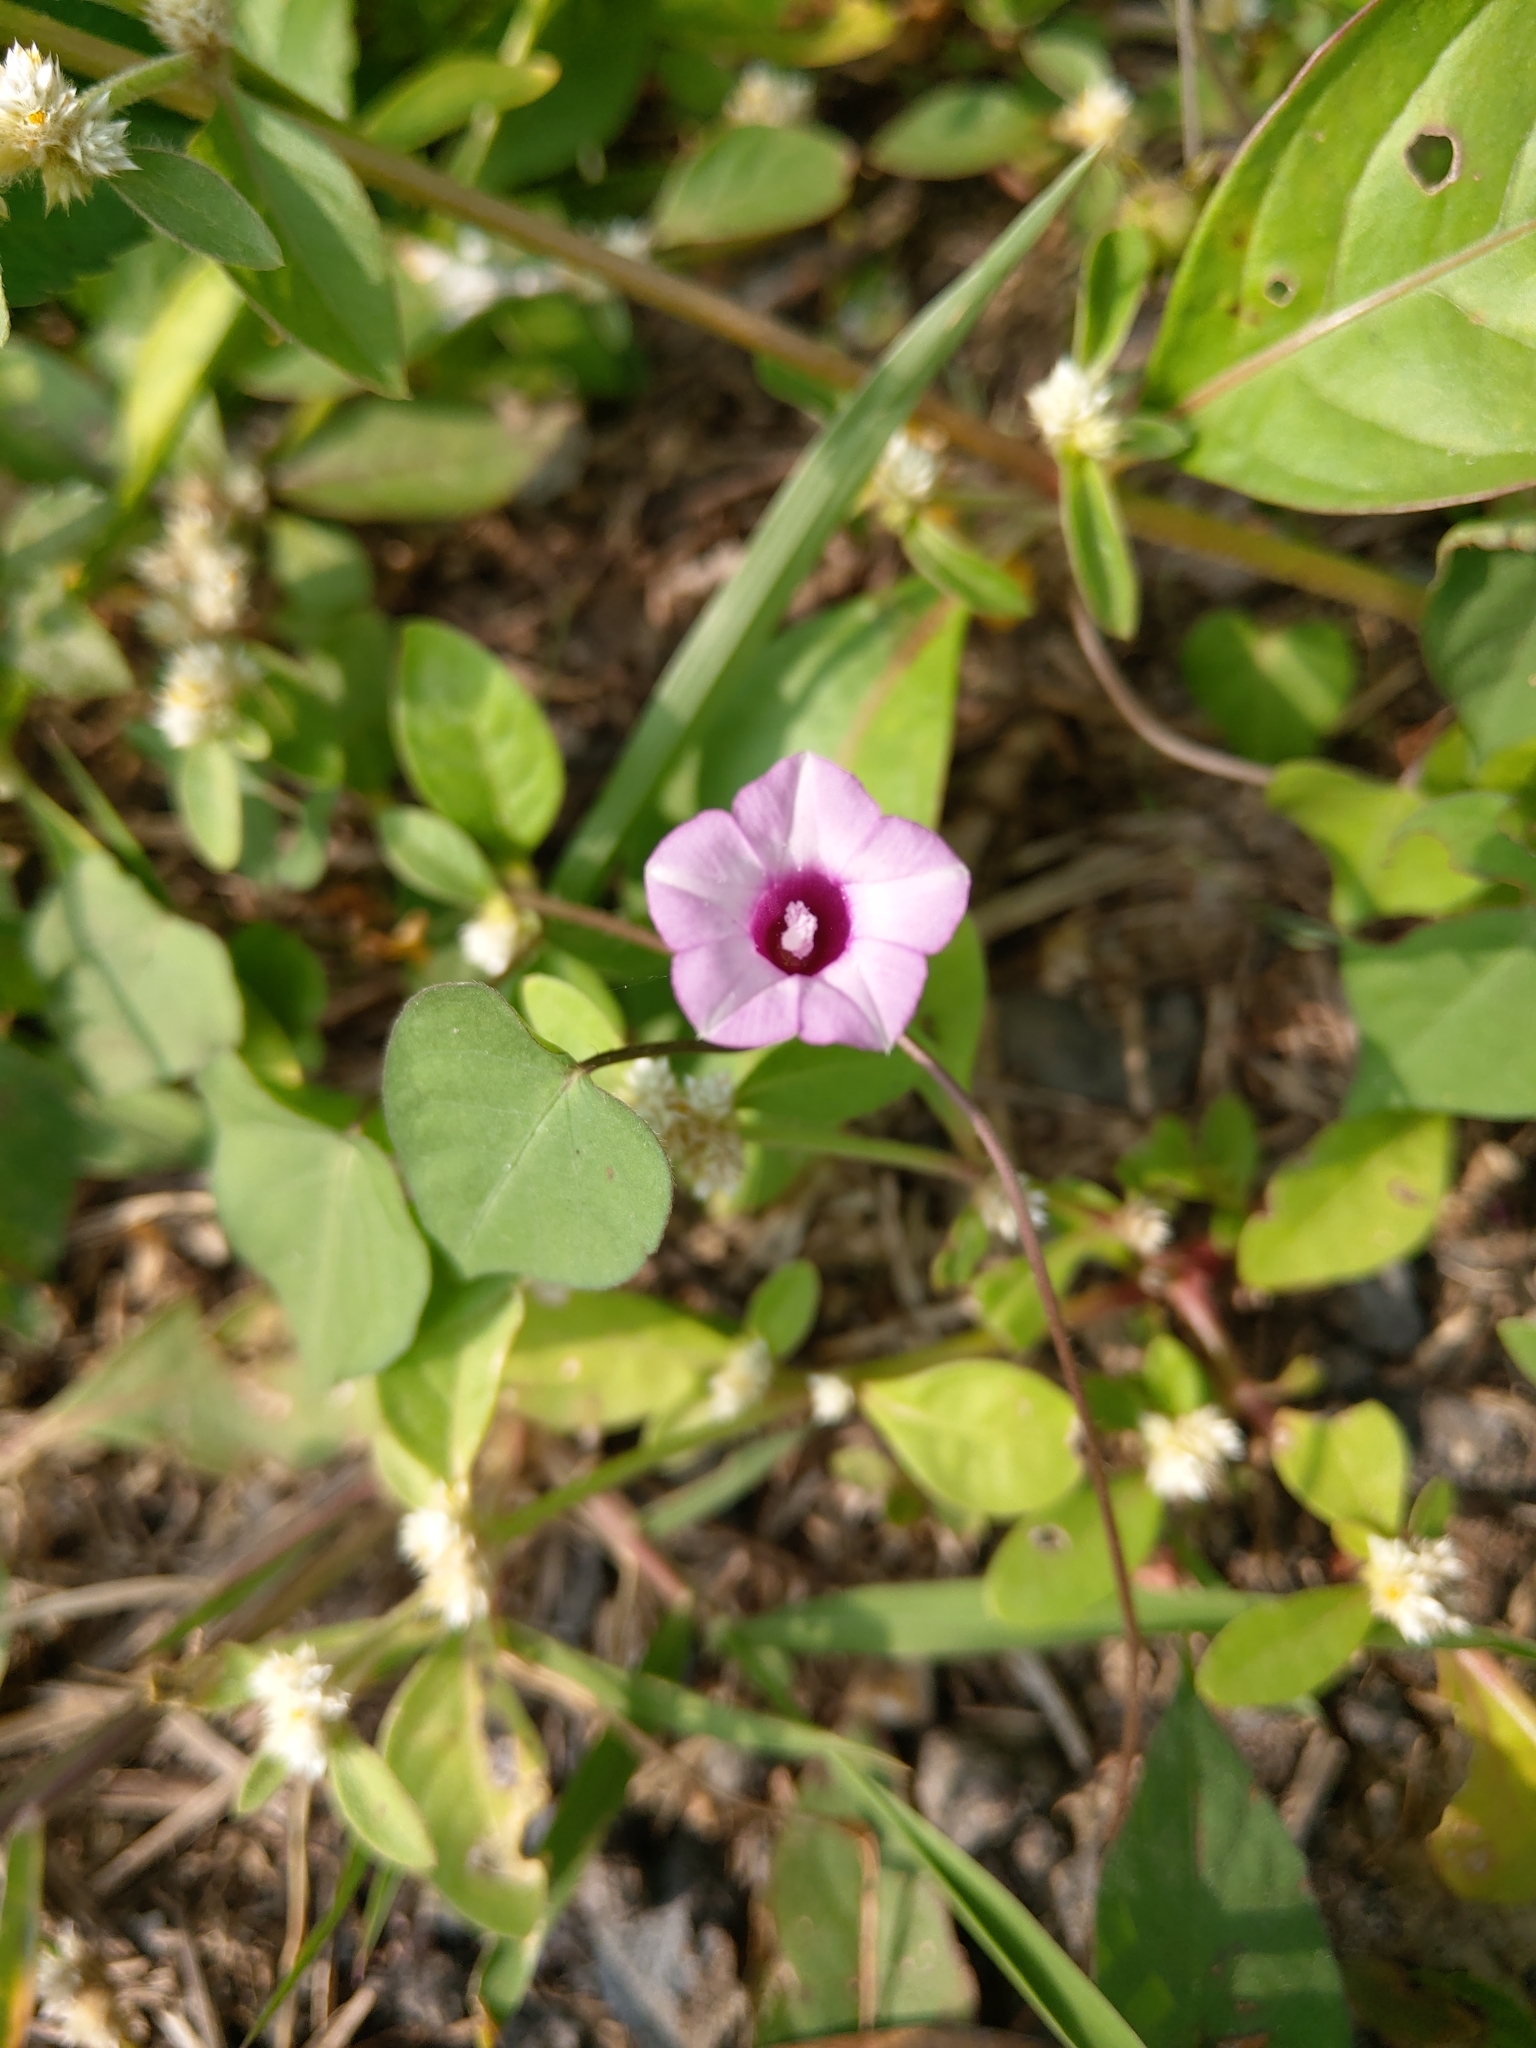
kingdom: Plantae
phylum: Tracheophyta
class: Magnoliopsida
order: Solanales
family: Convolvulaceae
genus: Ipomoea
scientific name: Ipomoea triloba
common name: Little-bell
